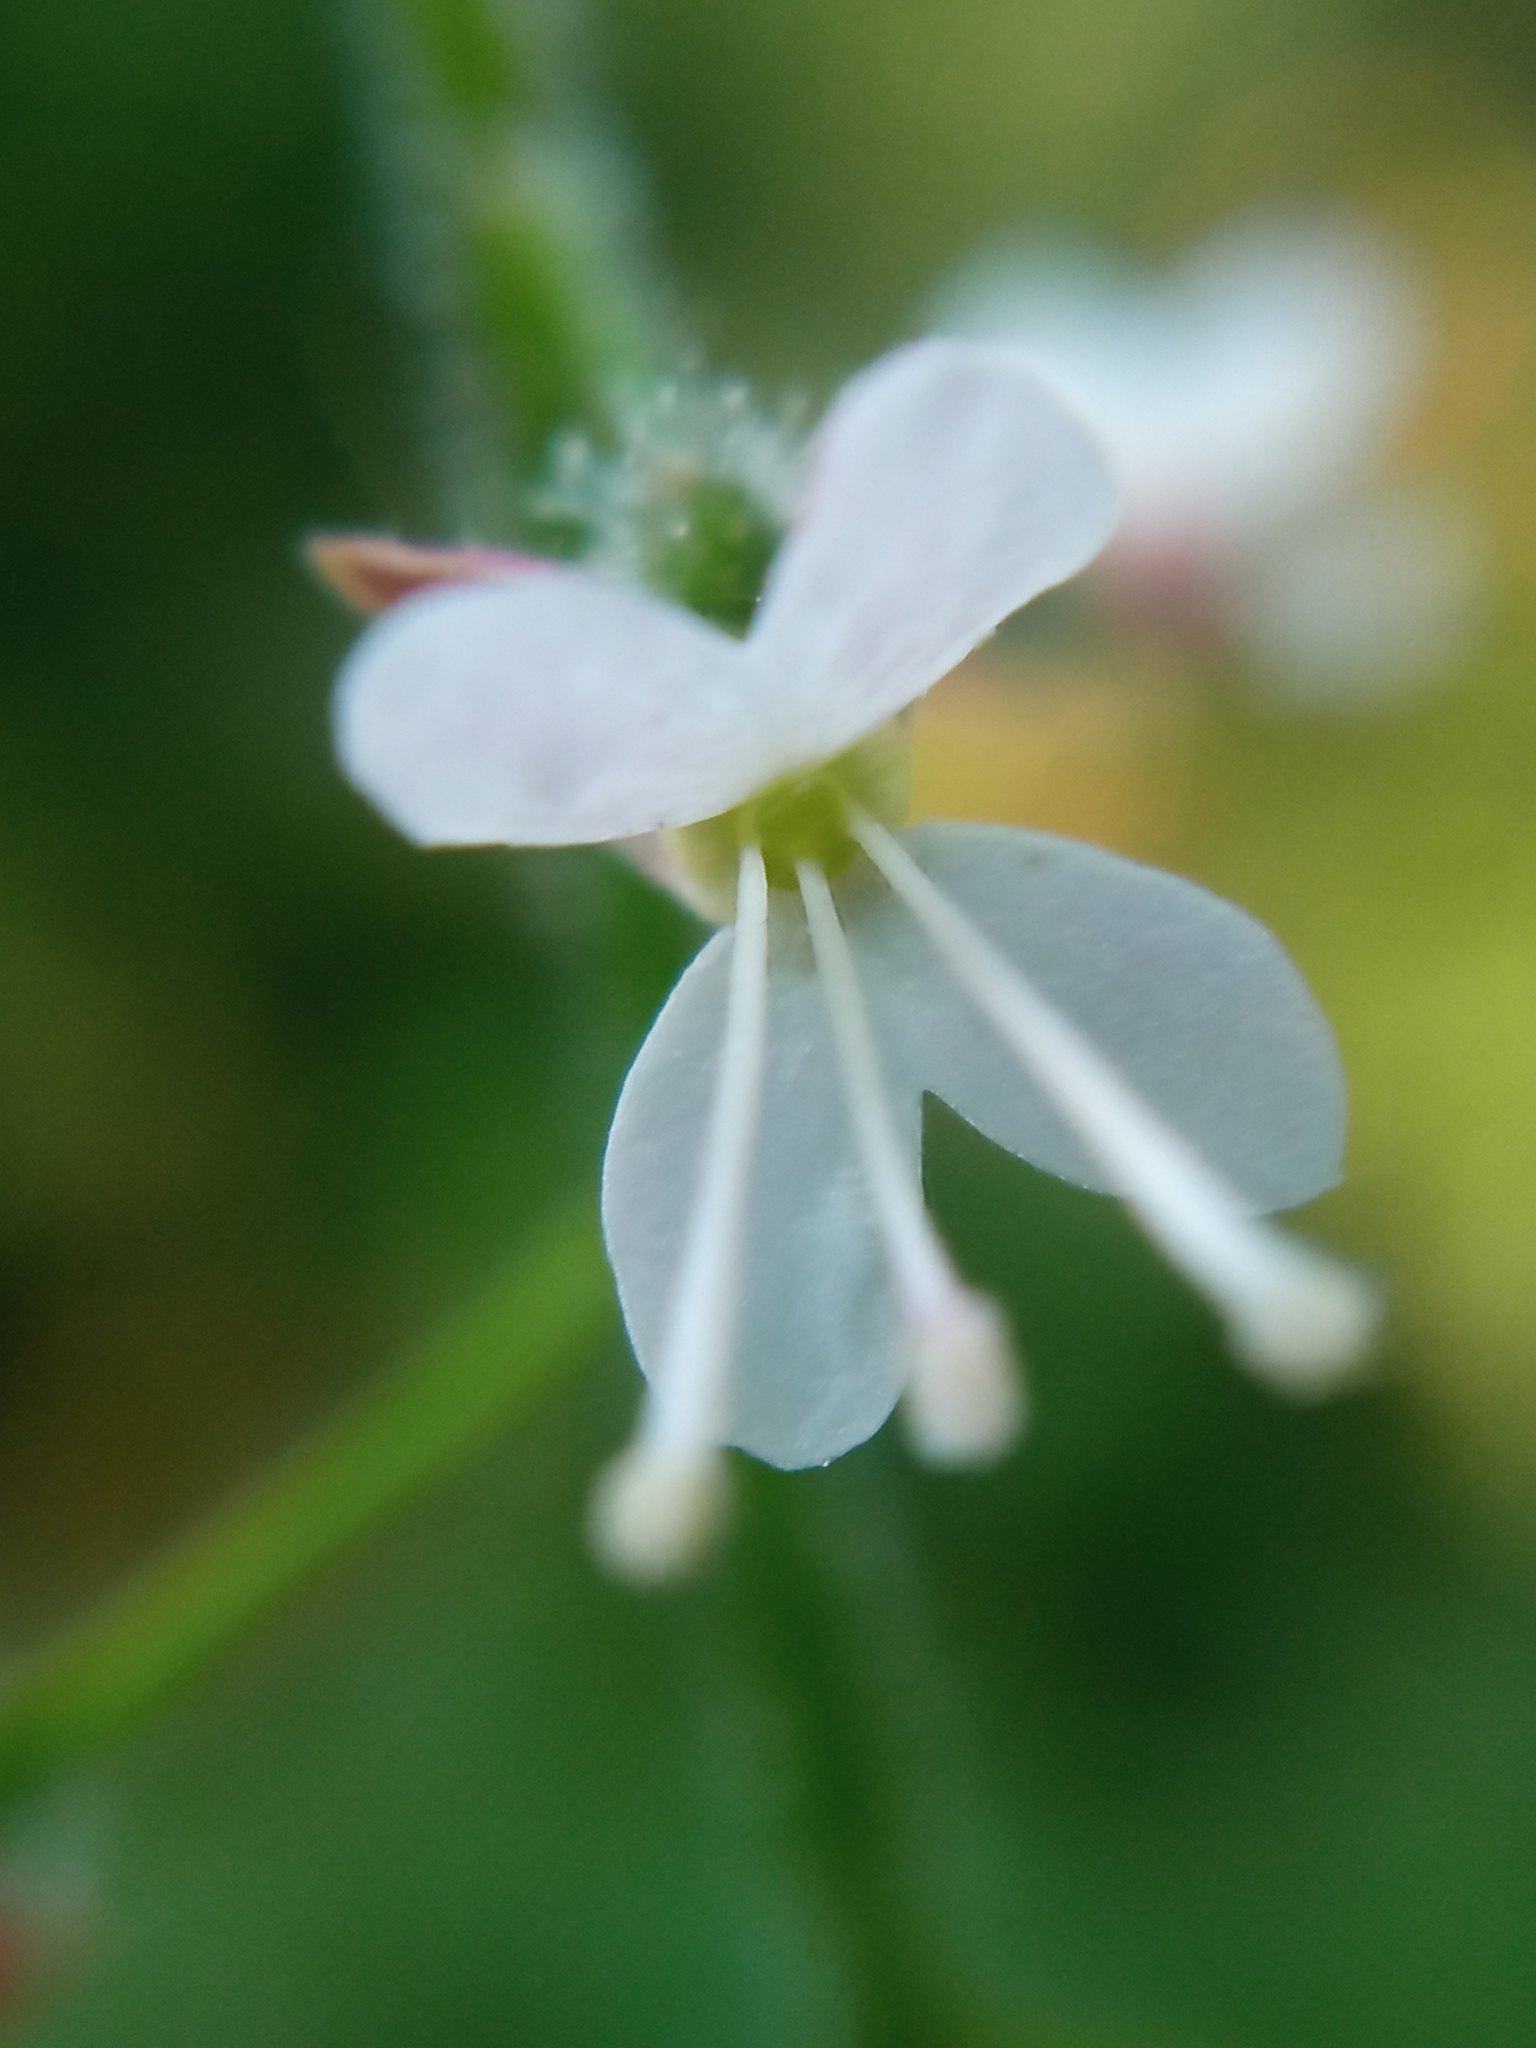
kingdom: Plantae
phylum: Tracheophyta
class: Magnoliopsida
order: Myrtales
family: Onagraceae
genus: Circaea
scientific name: Circaea lutetiana
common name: Enchanter's-nightshade
